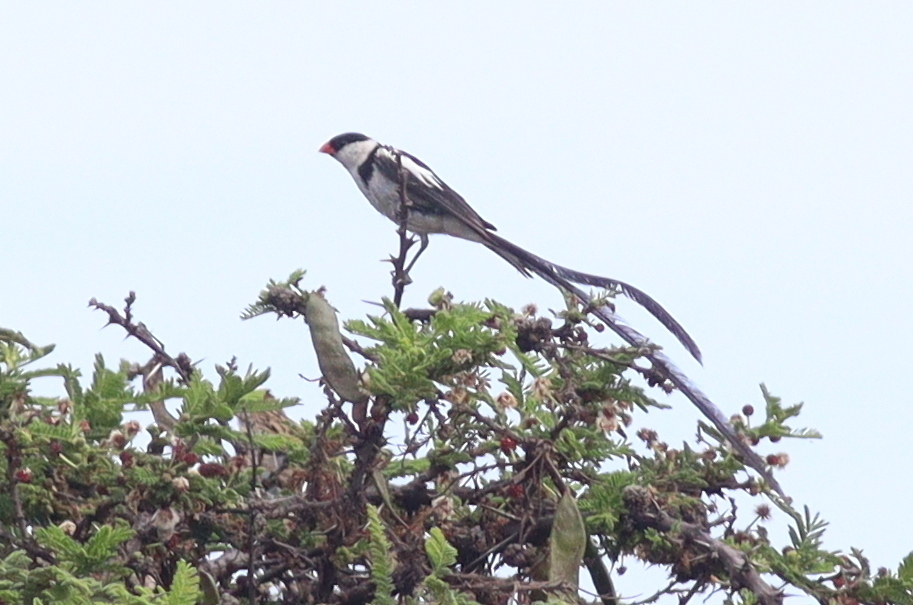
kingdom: Animalia
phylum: Chordata
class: Aves
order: Passeriformes
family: Viduidae
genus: Vidua
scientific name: Vidua macroura
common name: Pin-tailed whydah
